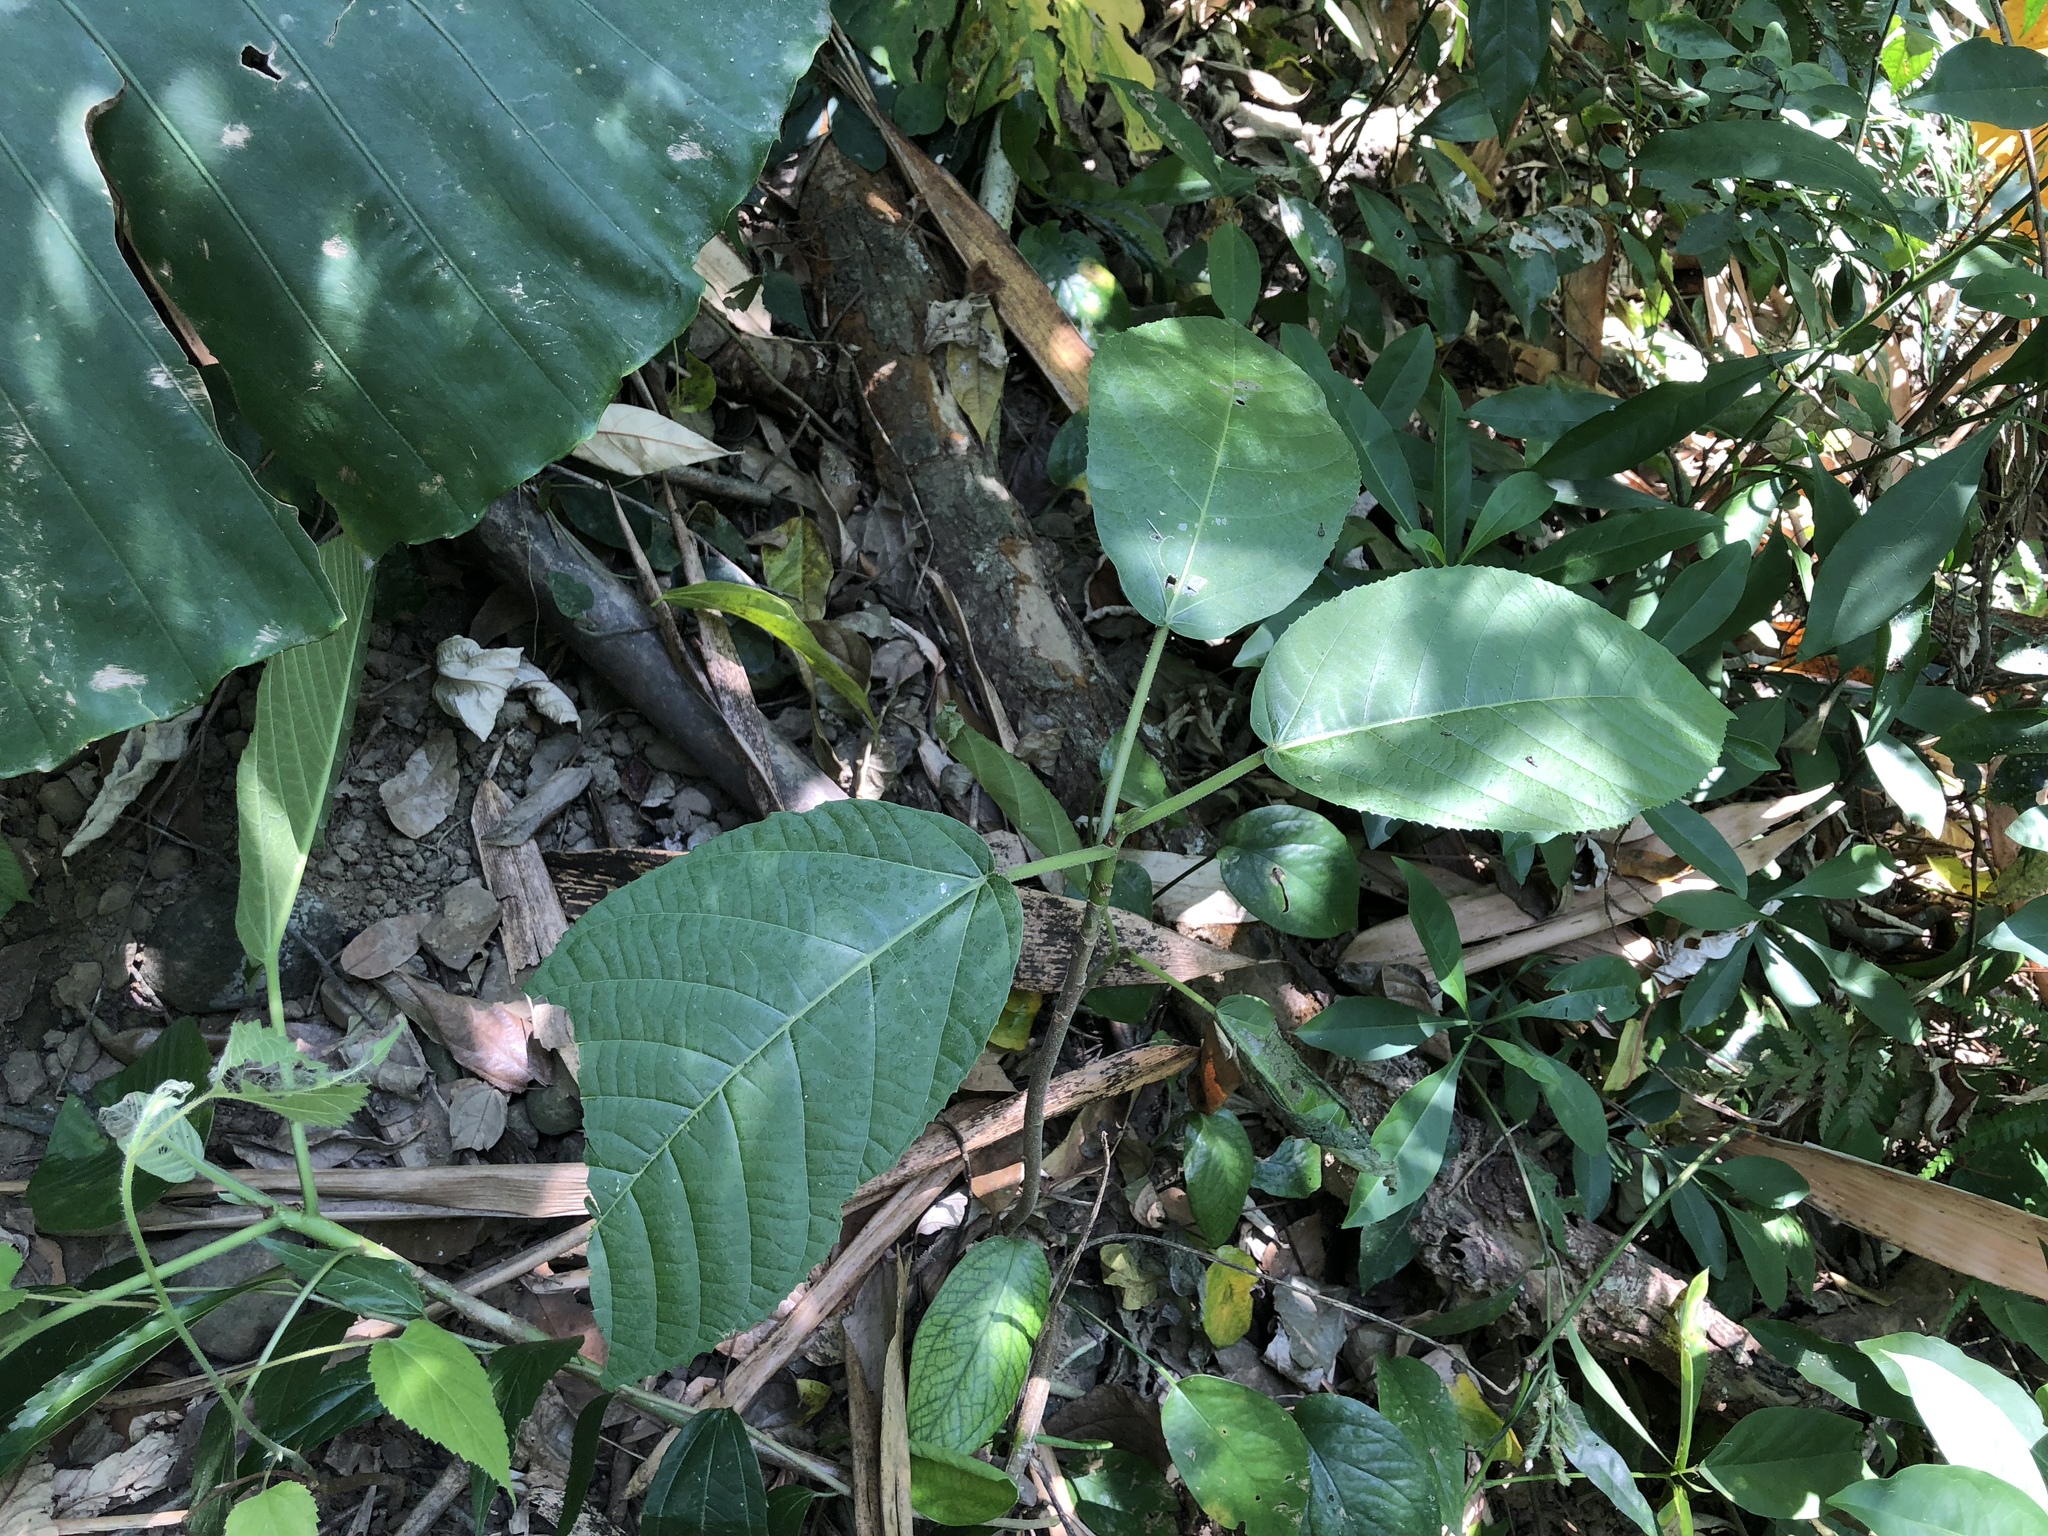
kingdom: Plantae
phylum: Tracheophyta
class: Magnoliopsida
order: Rosales
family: Urticaceae
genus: Dendrocnide
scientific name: Dendrocnide meyeniana
